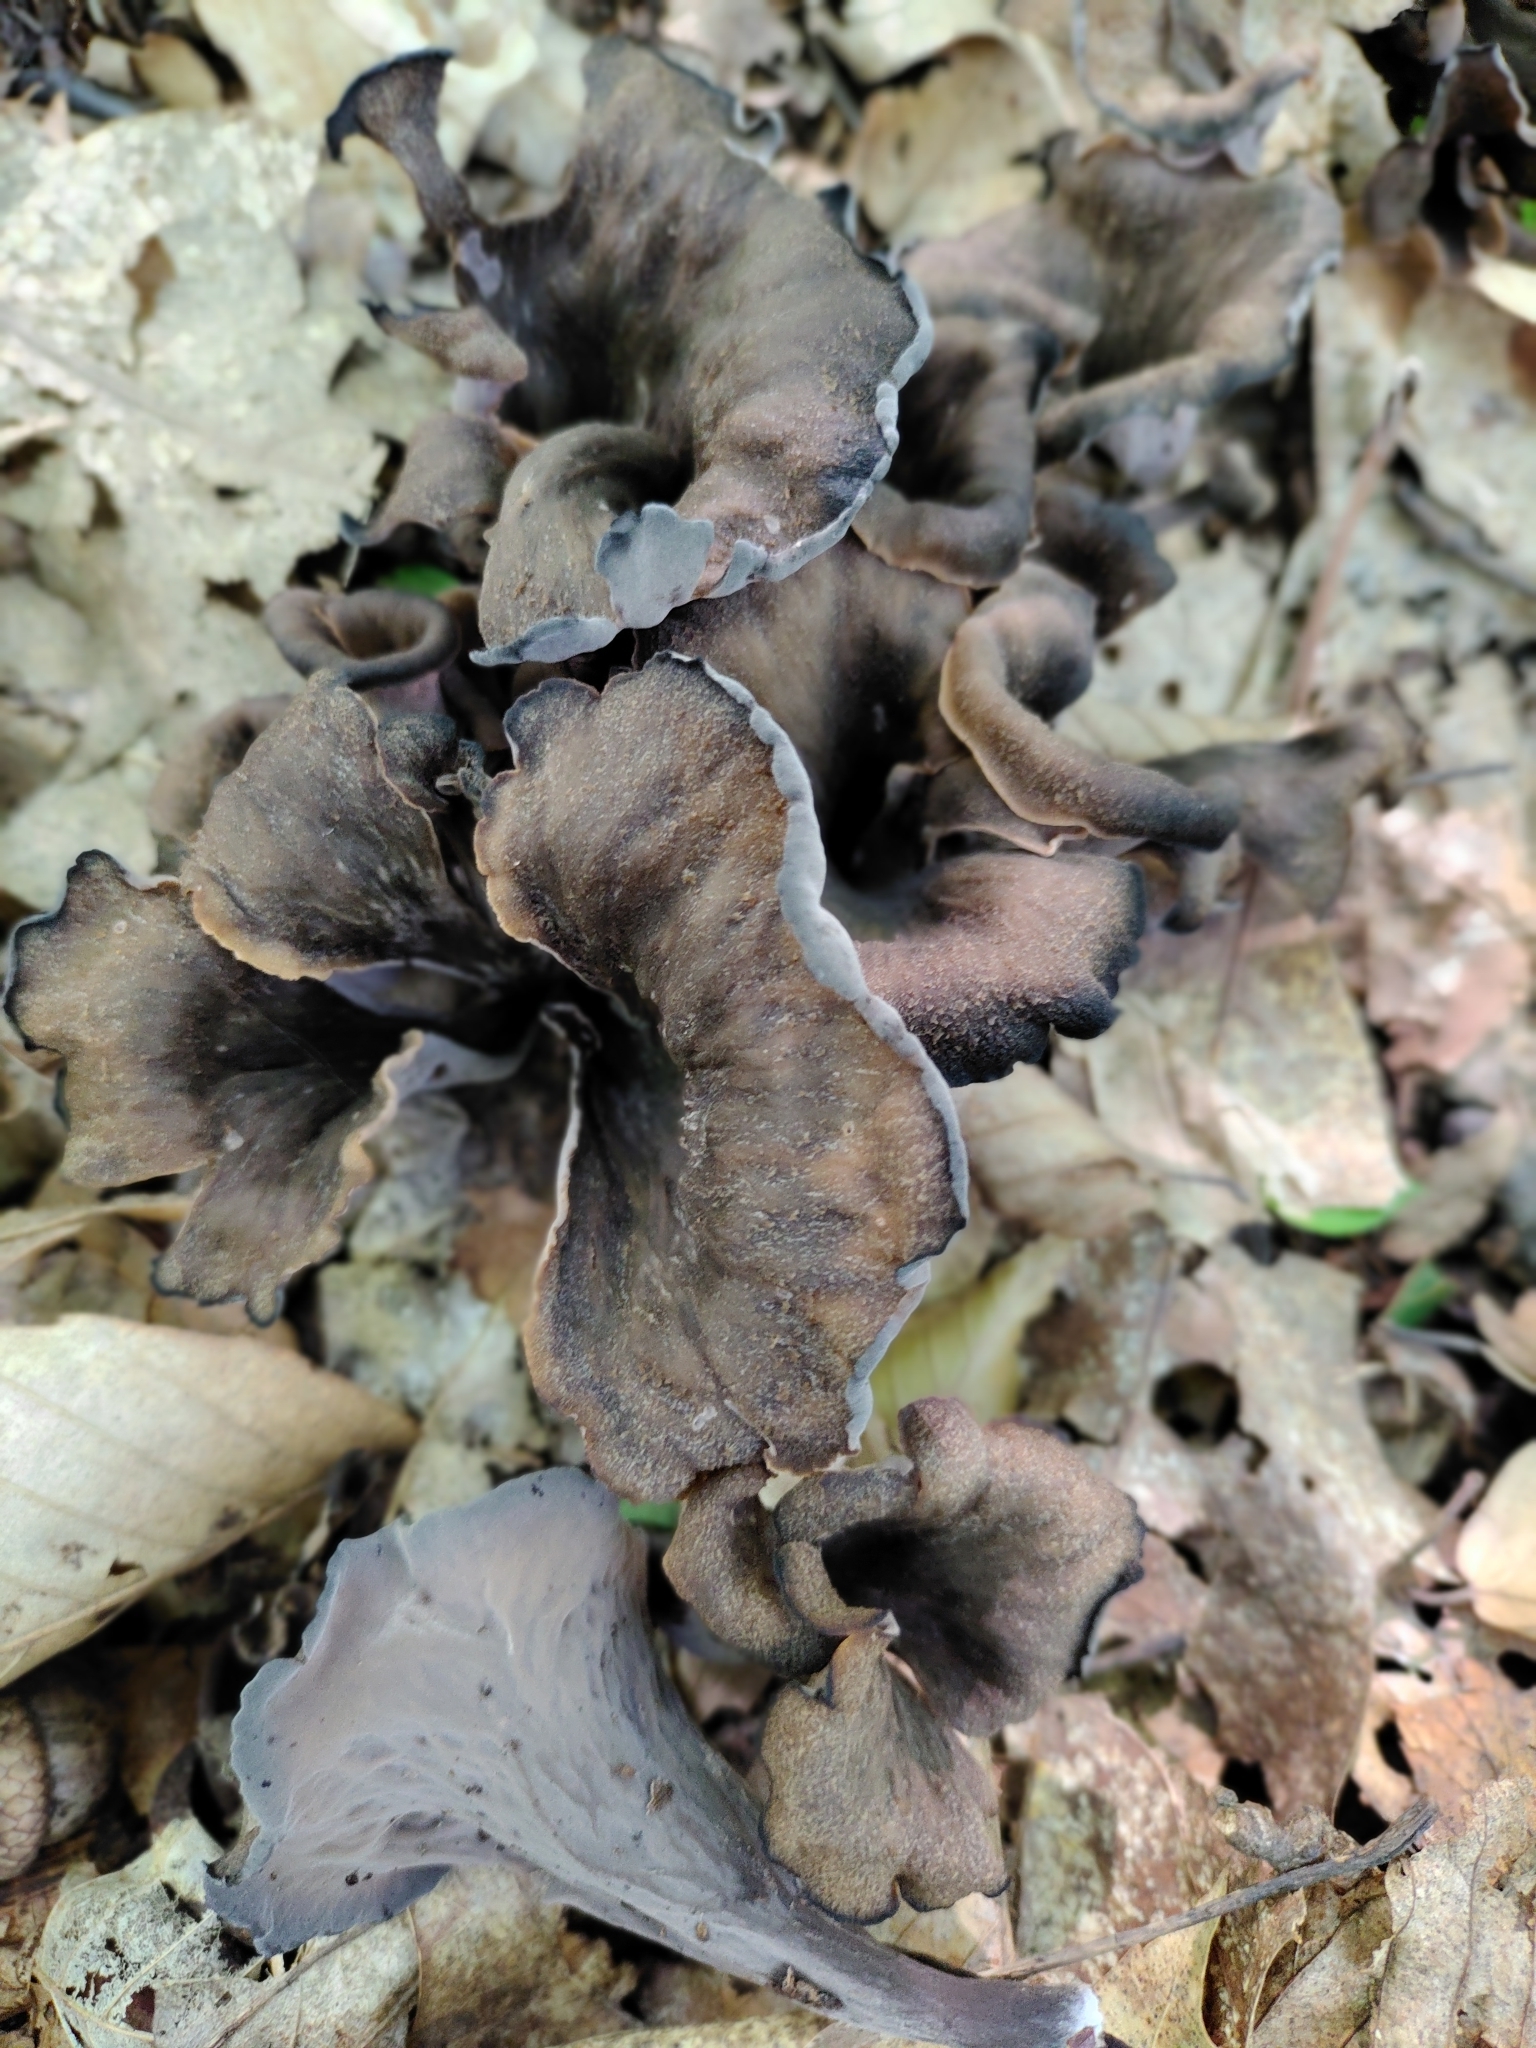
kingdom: Fungi
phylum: Basidiomycota
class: Agaricomycetes
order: Cantharellales
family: Hydnaceae
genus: Craterellus
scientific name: Craterellus cornucopioides
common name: Horn of plenty
